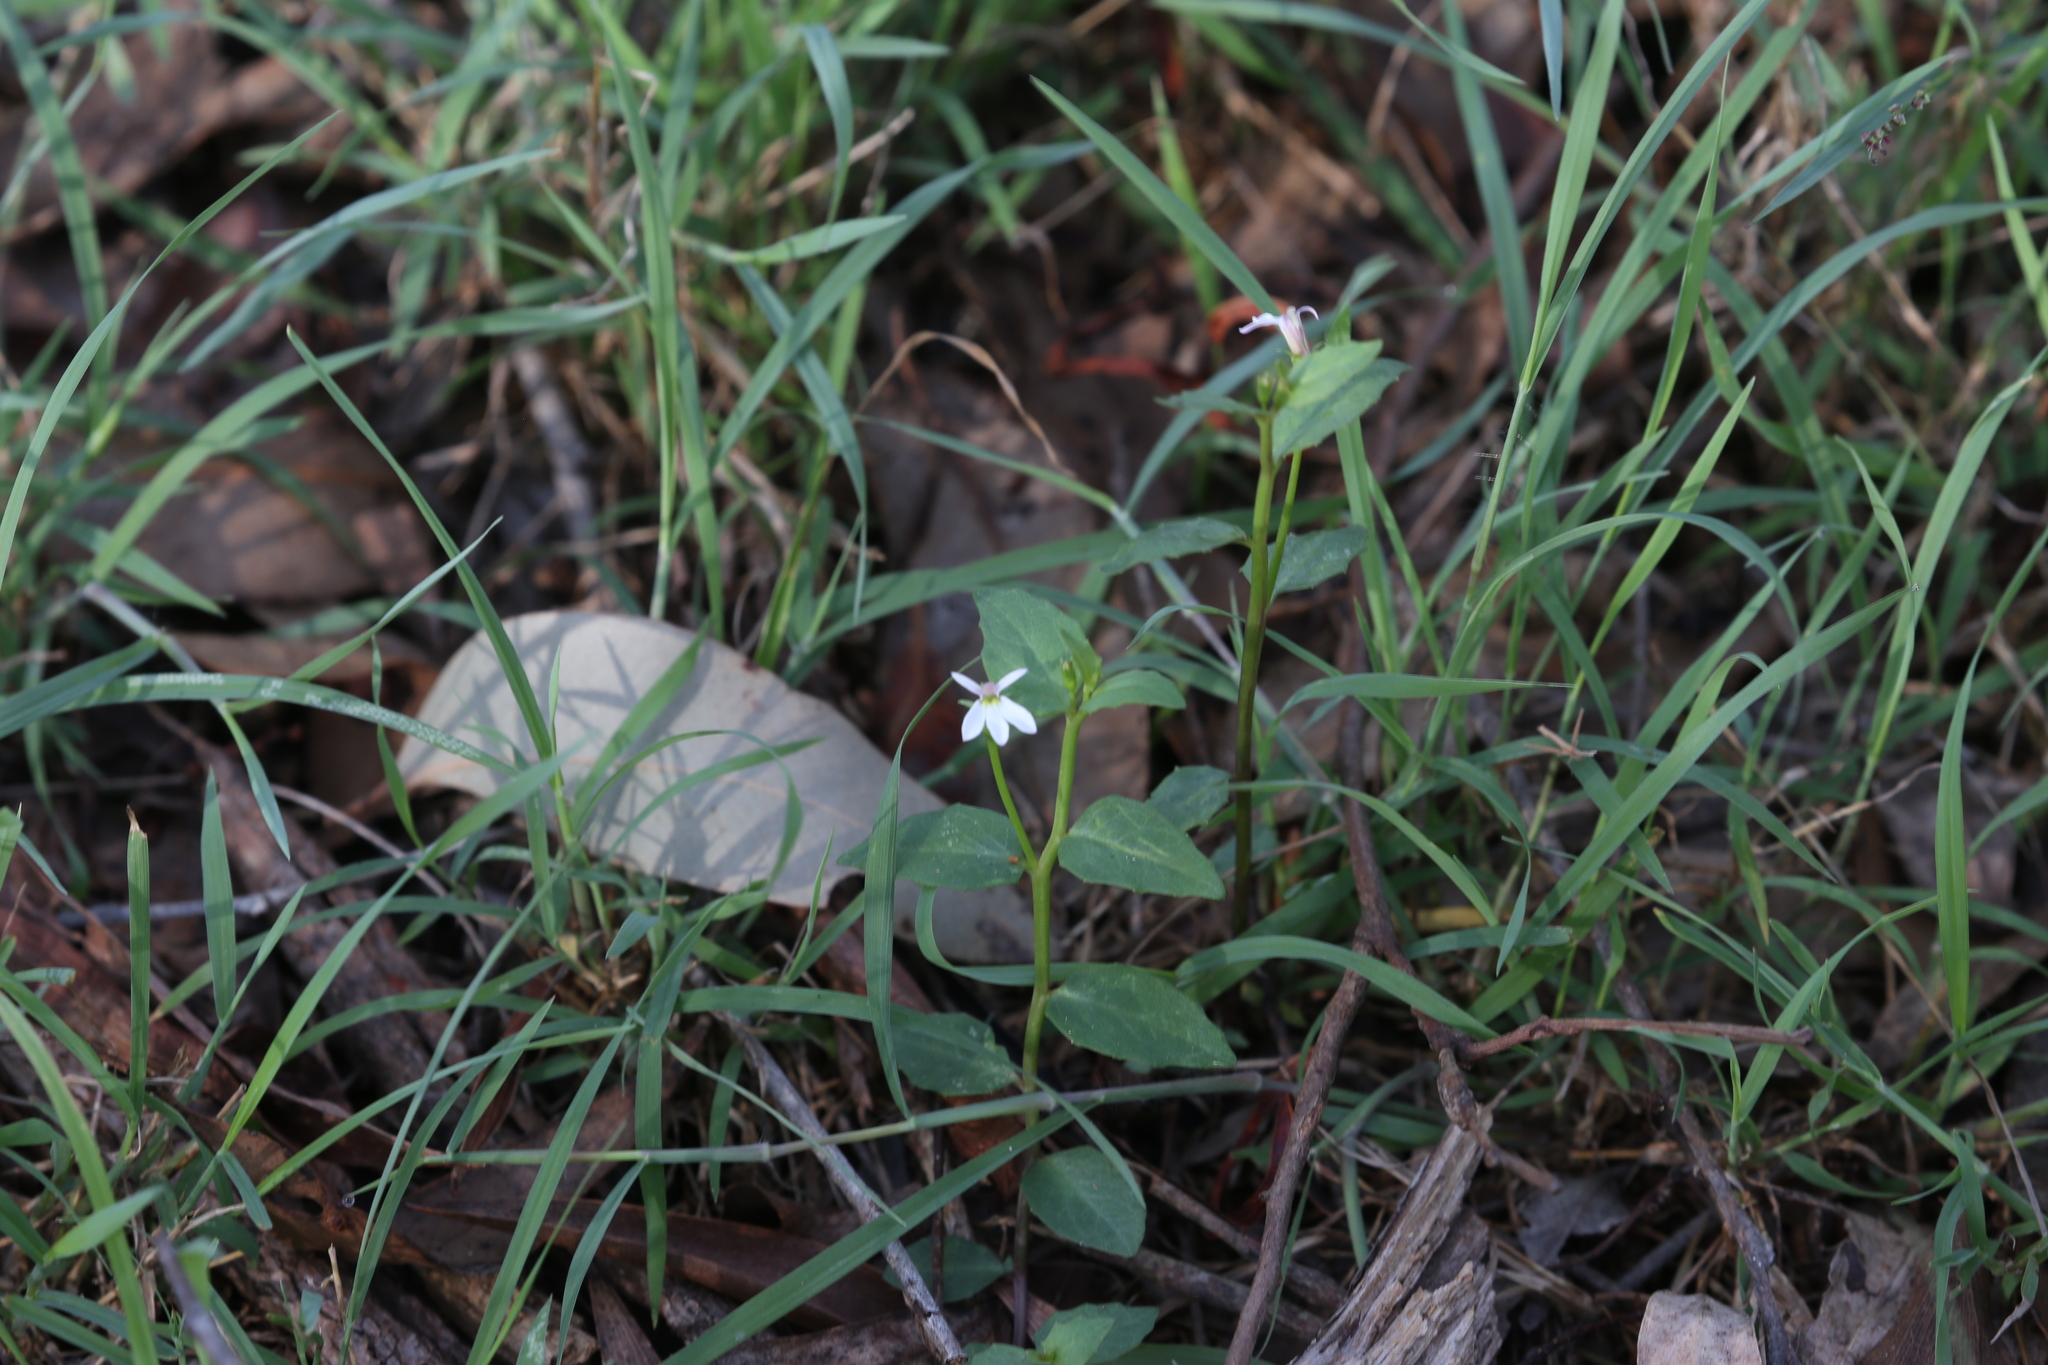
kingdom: Plantae
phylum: Tracheophyta
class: Magnoliopsida
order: Asterales
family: Campanulaceae
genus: Lobelia
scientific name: Lobelia purpurascens
